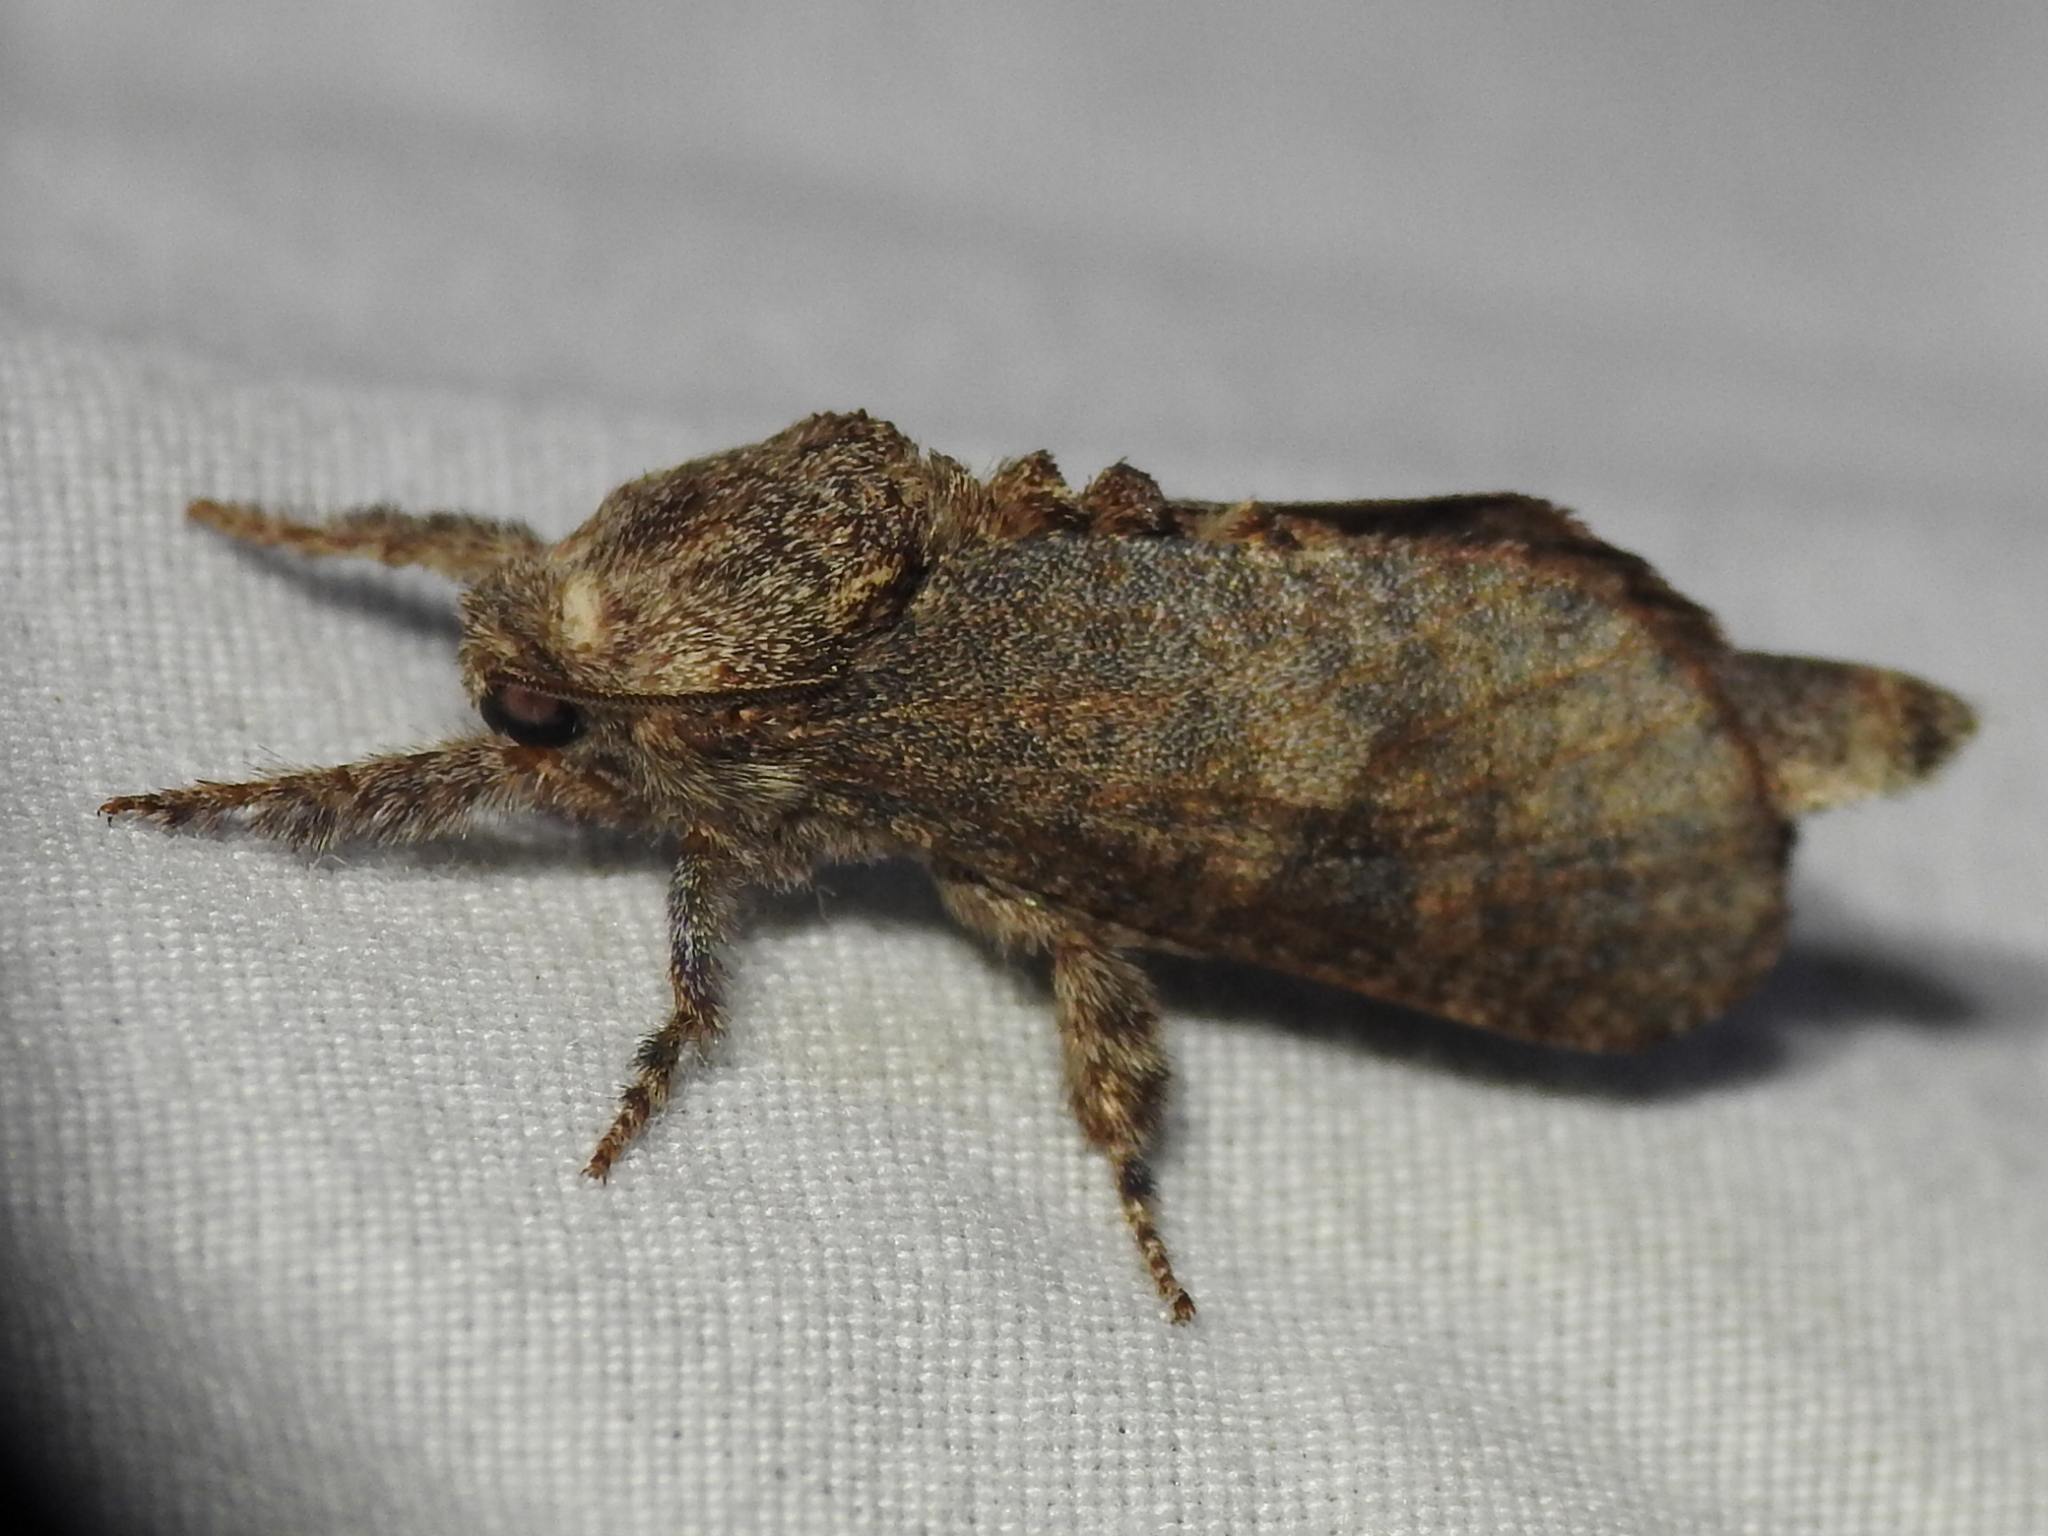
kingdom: Animalia
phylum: Arthropoda
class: Insecta
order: Lepidoptera
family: Cossidae
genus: Givira
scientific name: Givira arbeloides
